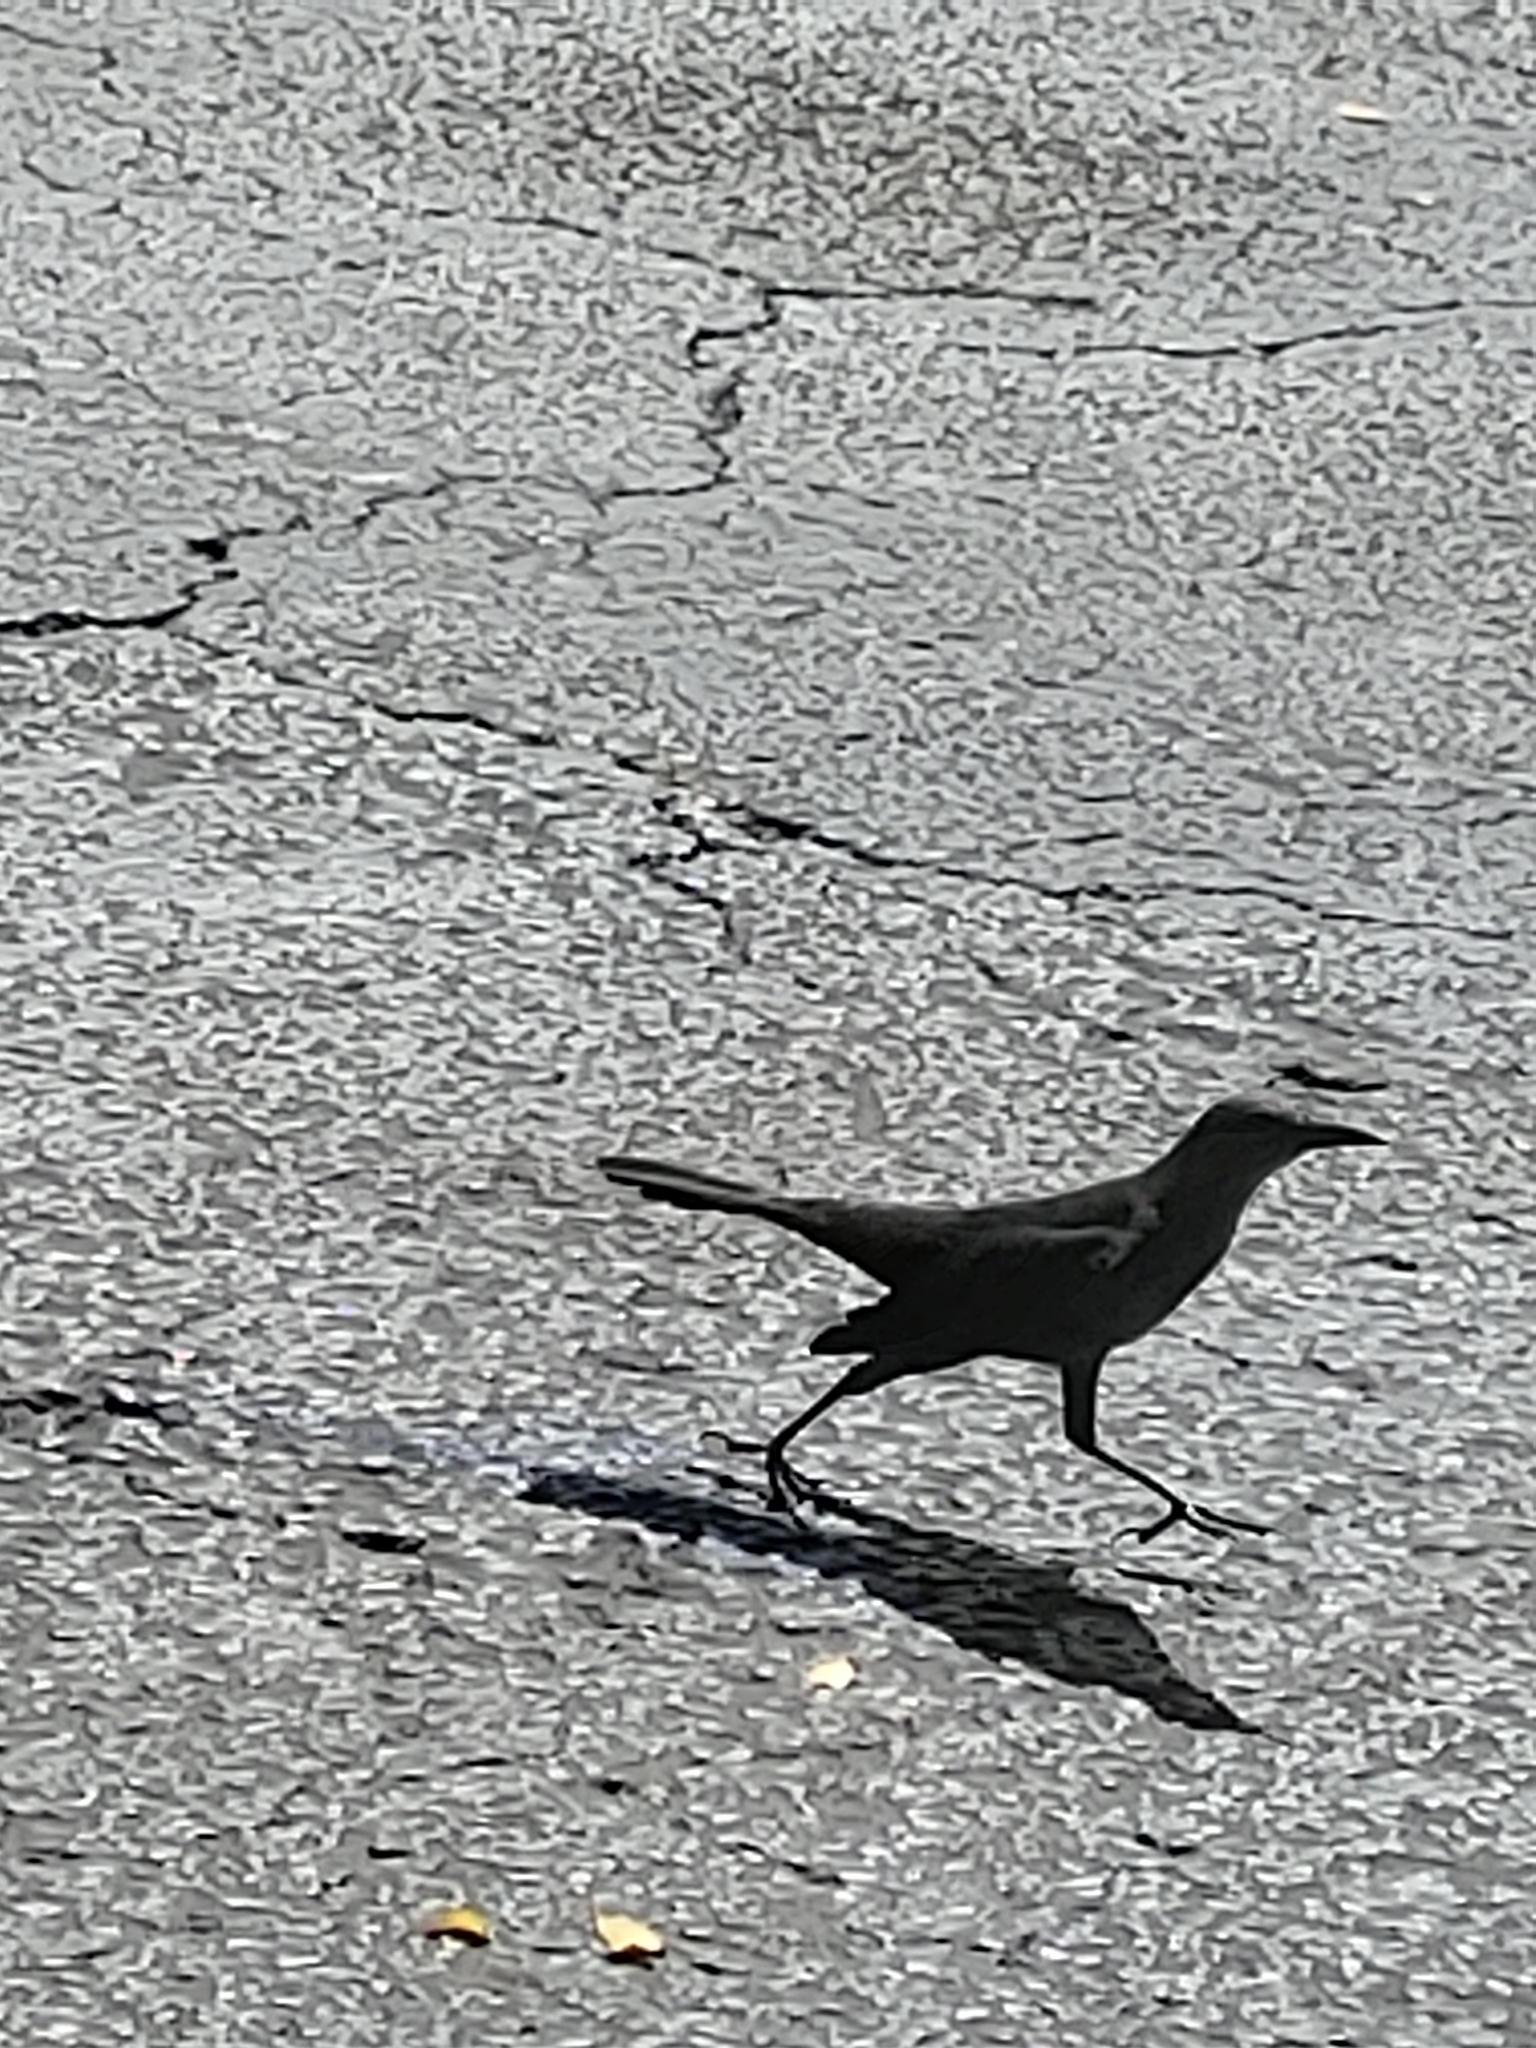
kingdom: Animalia
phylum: Chordata
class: Aves
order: Passeriformes
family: Icteridae
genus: Quiscalus
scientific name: Quiscalus major
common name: Boat-tailed grackle
